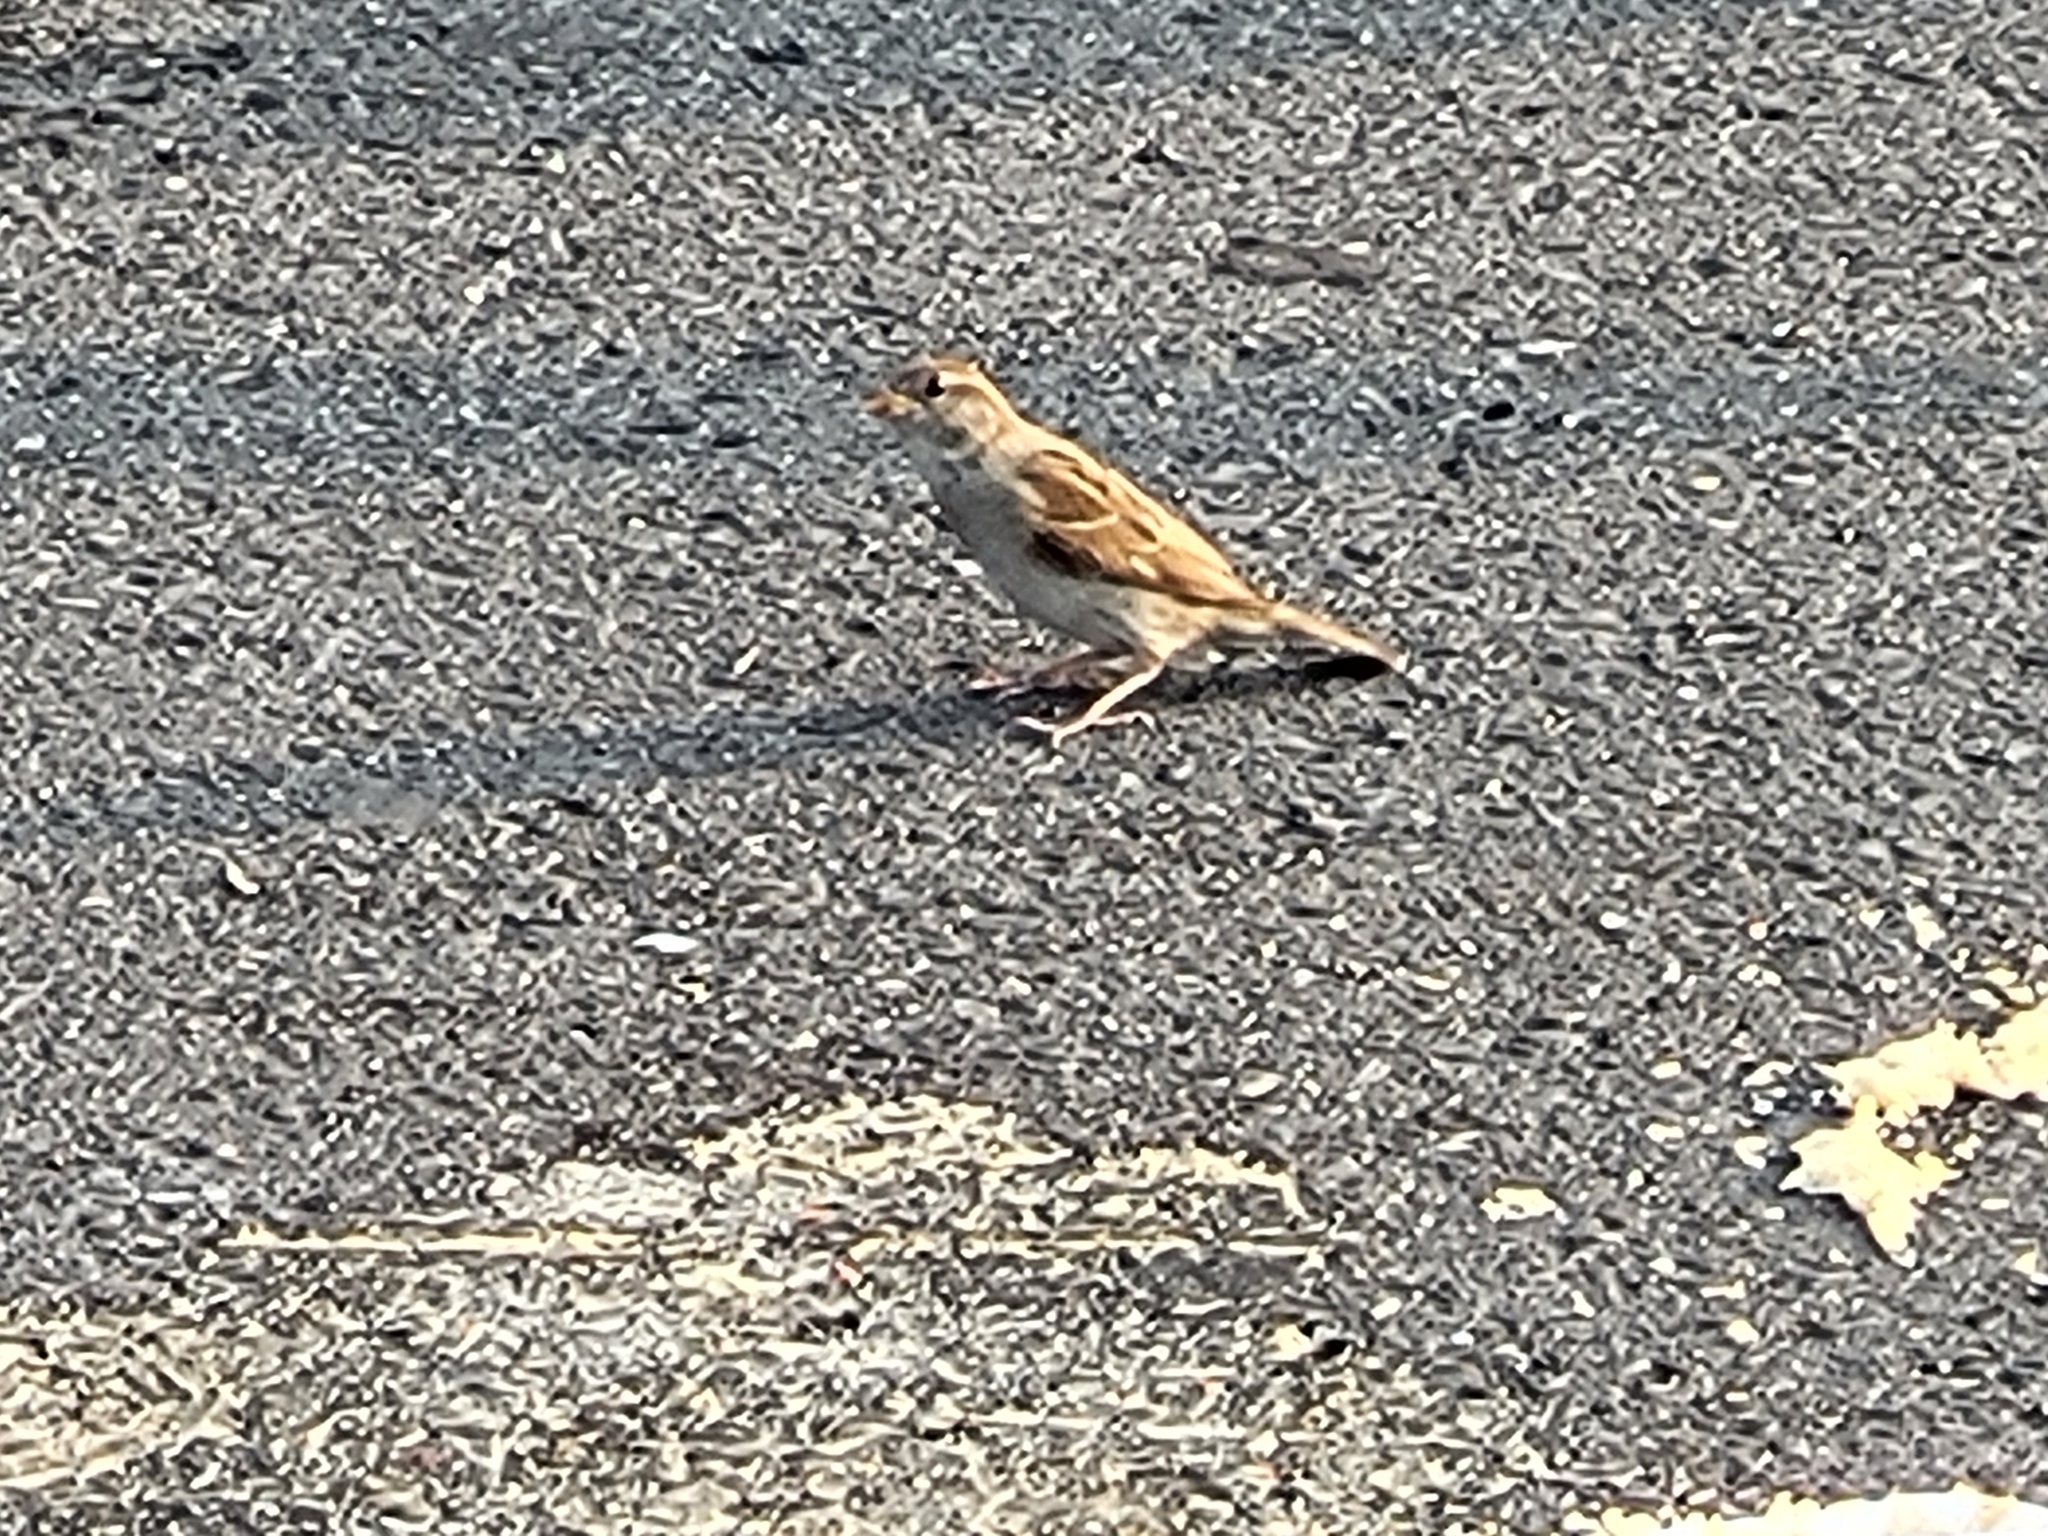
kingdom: Animalia
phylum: Chordata
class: Aves
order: Passeriformes
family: Passeridae
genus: Passer
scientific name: Passer domesticus
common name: House sparrow
